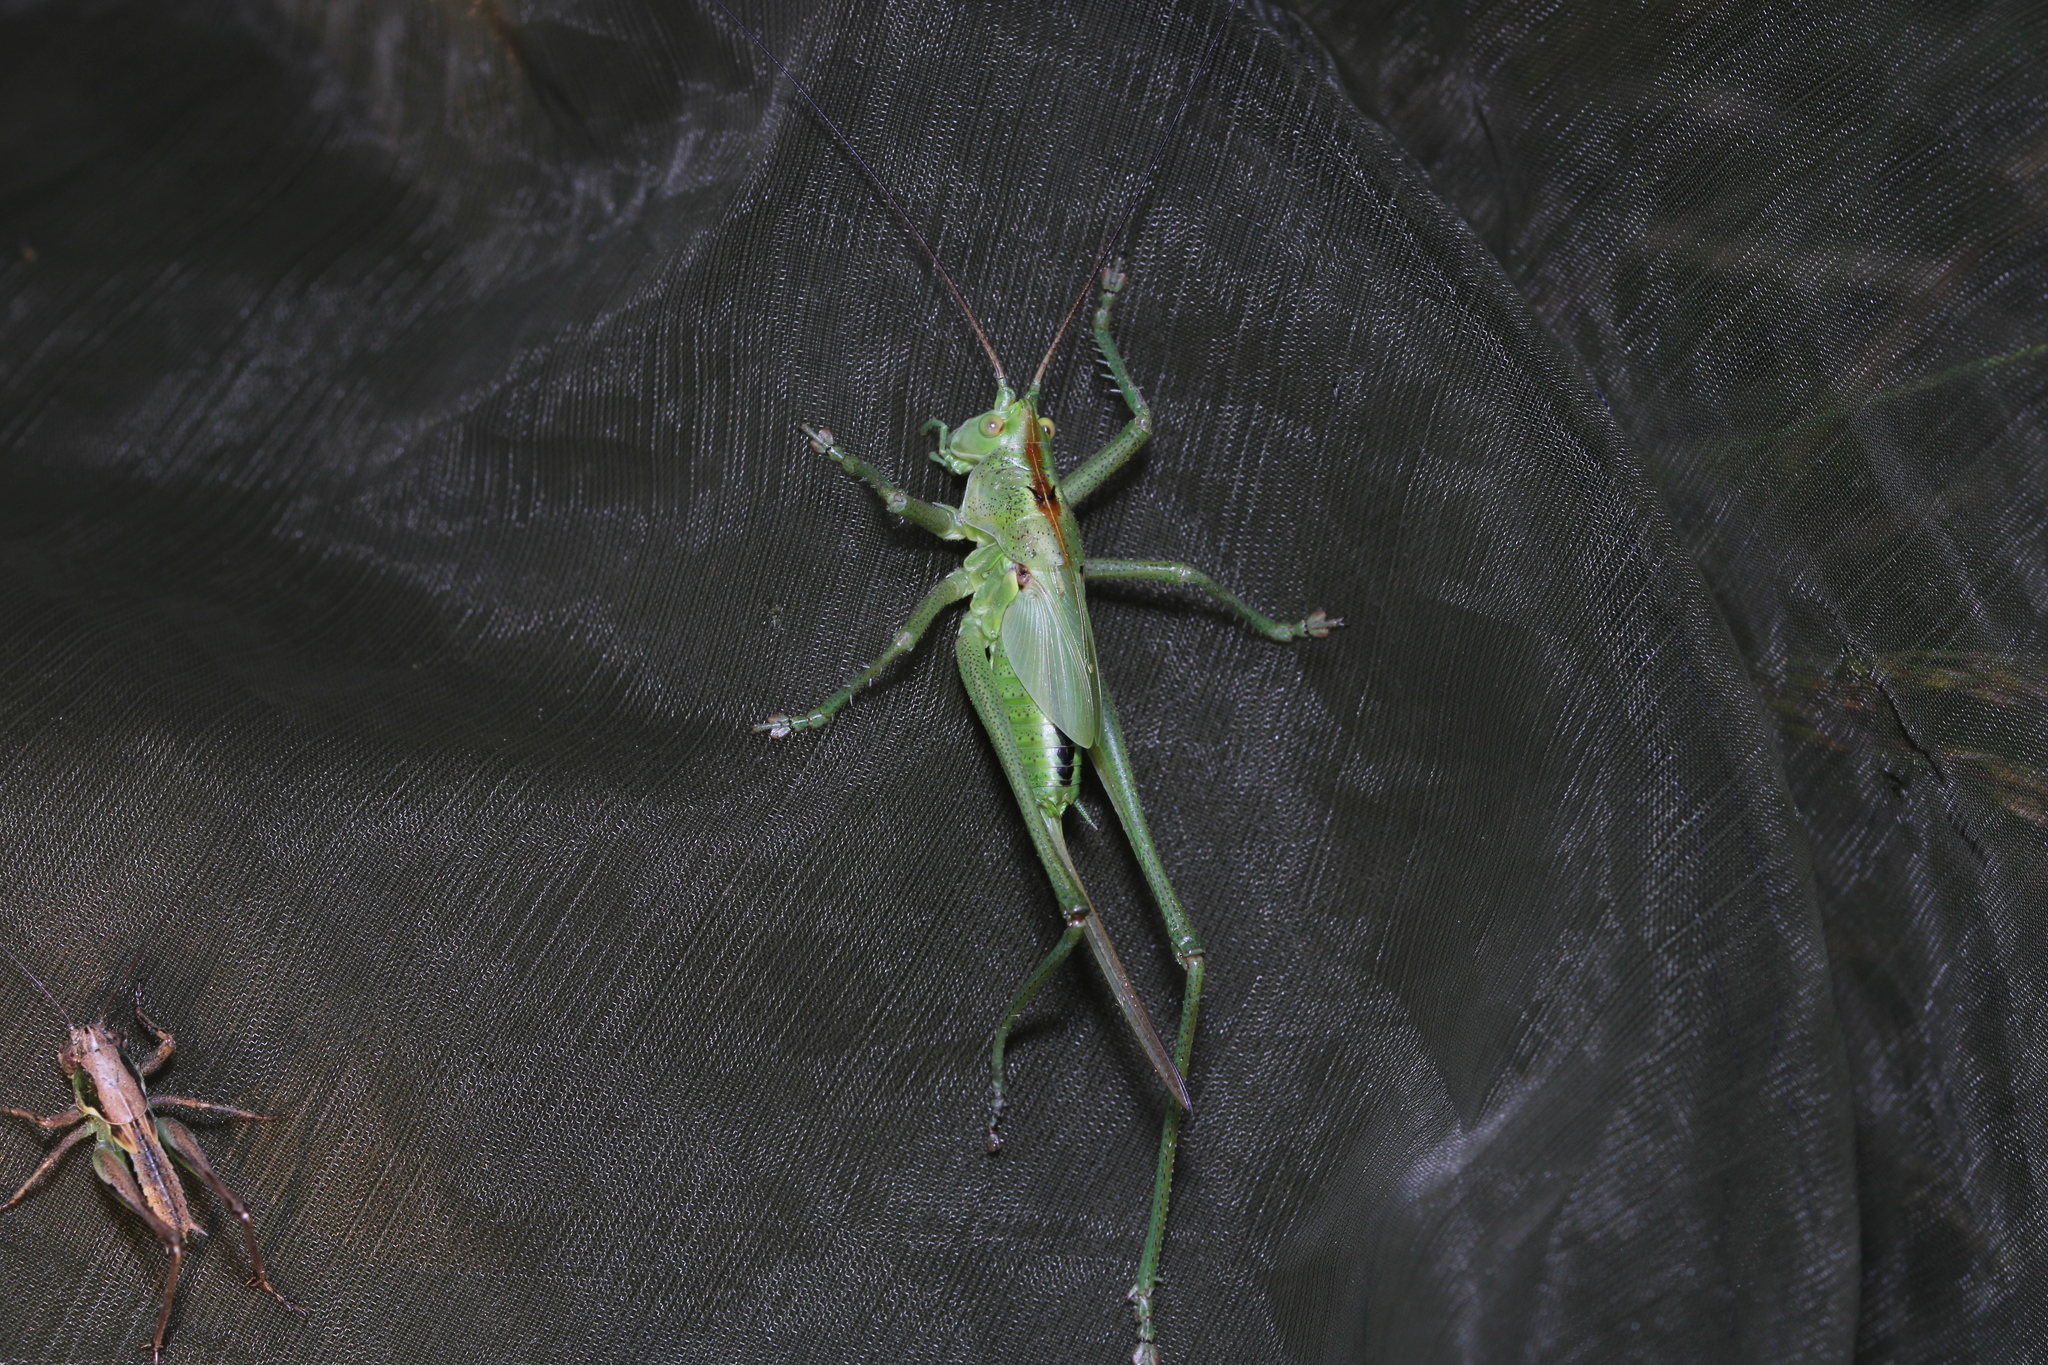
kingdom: Animalia
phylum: Arthropoda
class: Insecta
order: Orthoptera
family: Tettigoniidae
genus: Tettigonia
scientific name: Tettigonia viridissima
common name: Great green bush-cricket
